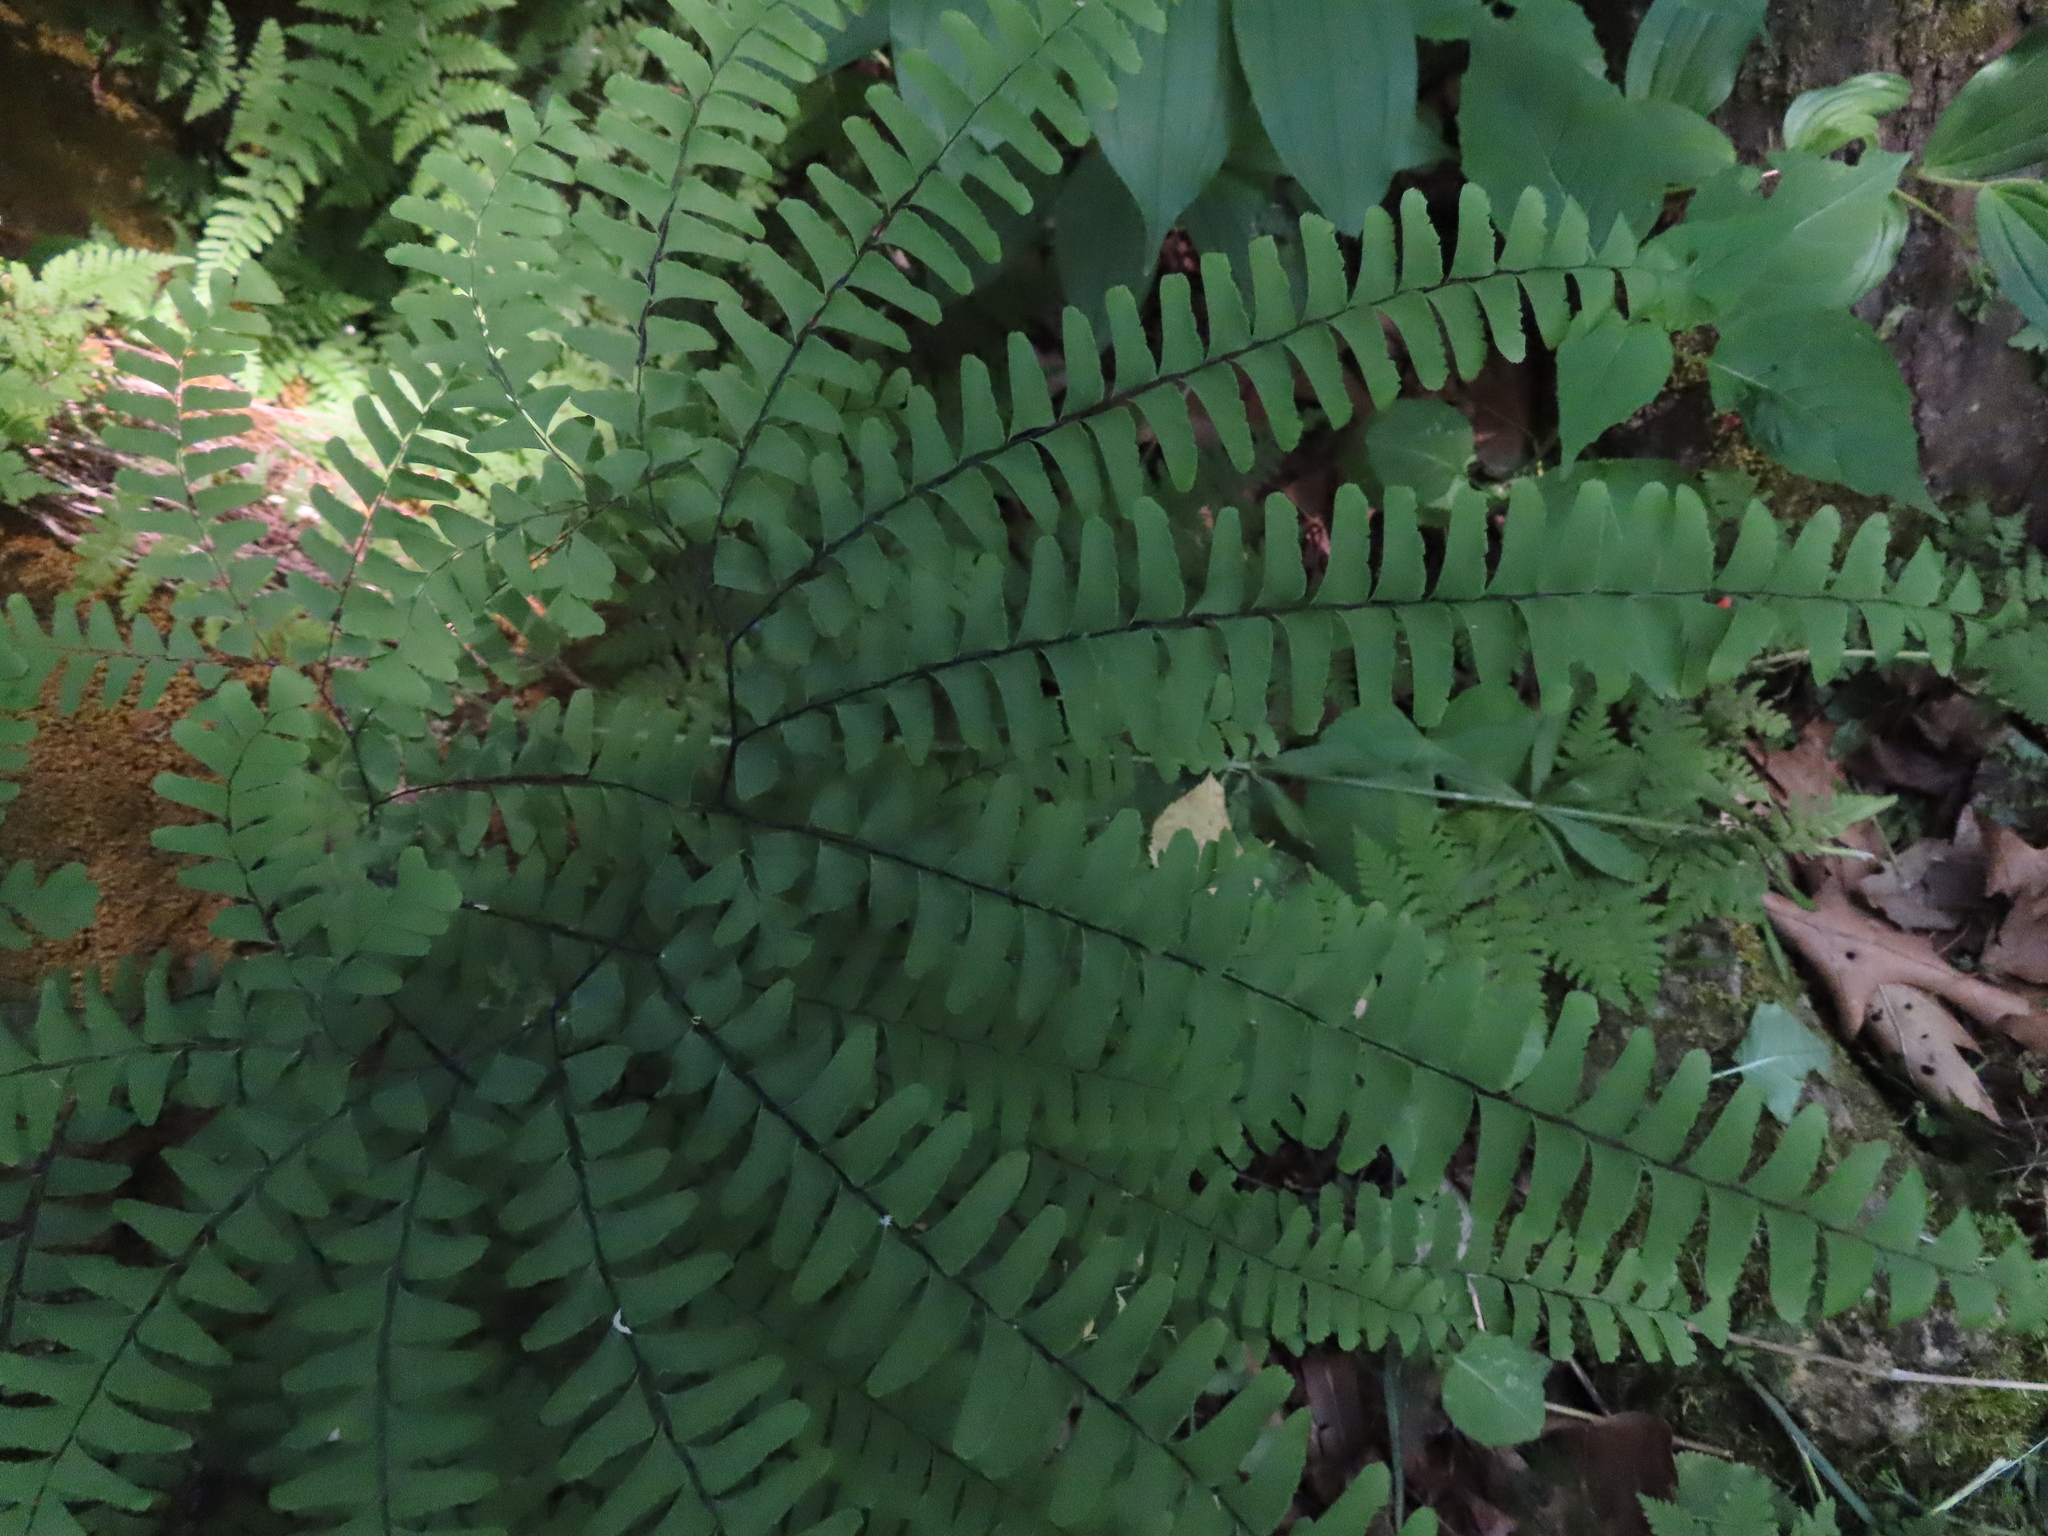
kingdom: Plantae
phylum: Tracheophyta
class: Polypodiopsida
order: Polypodiales
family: Pteridaceae
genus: Adiantum
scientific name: Adiantum pedatum
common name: Five-finger fern
